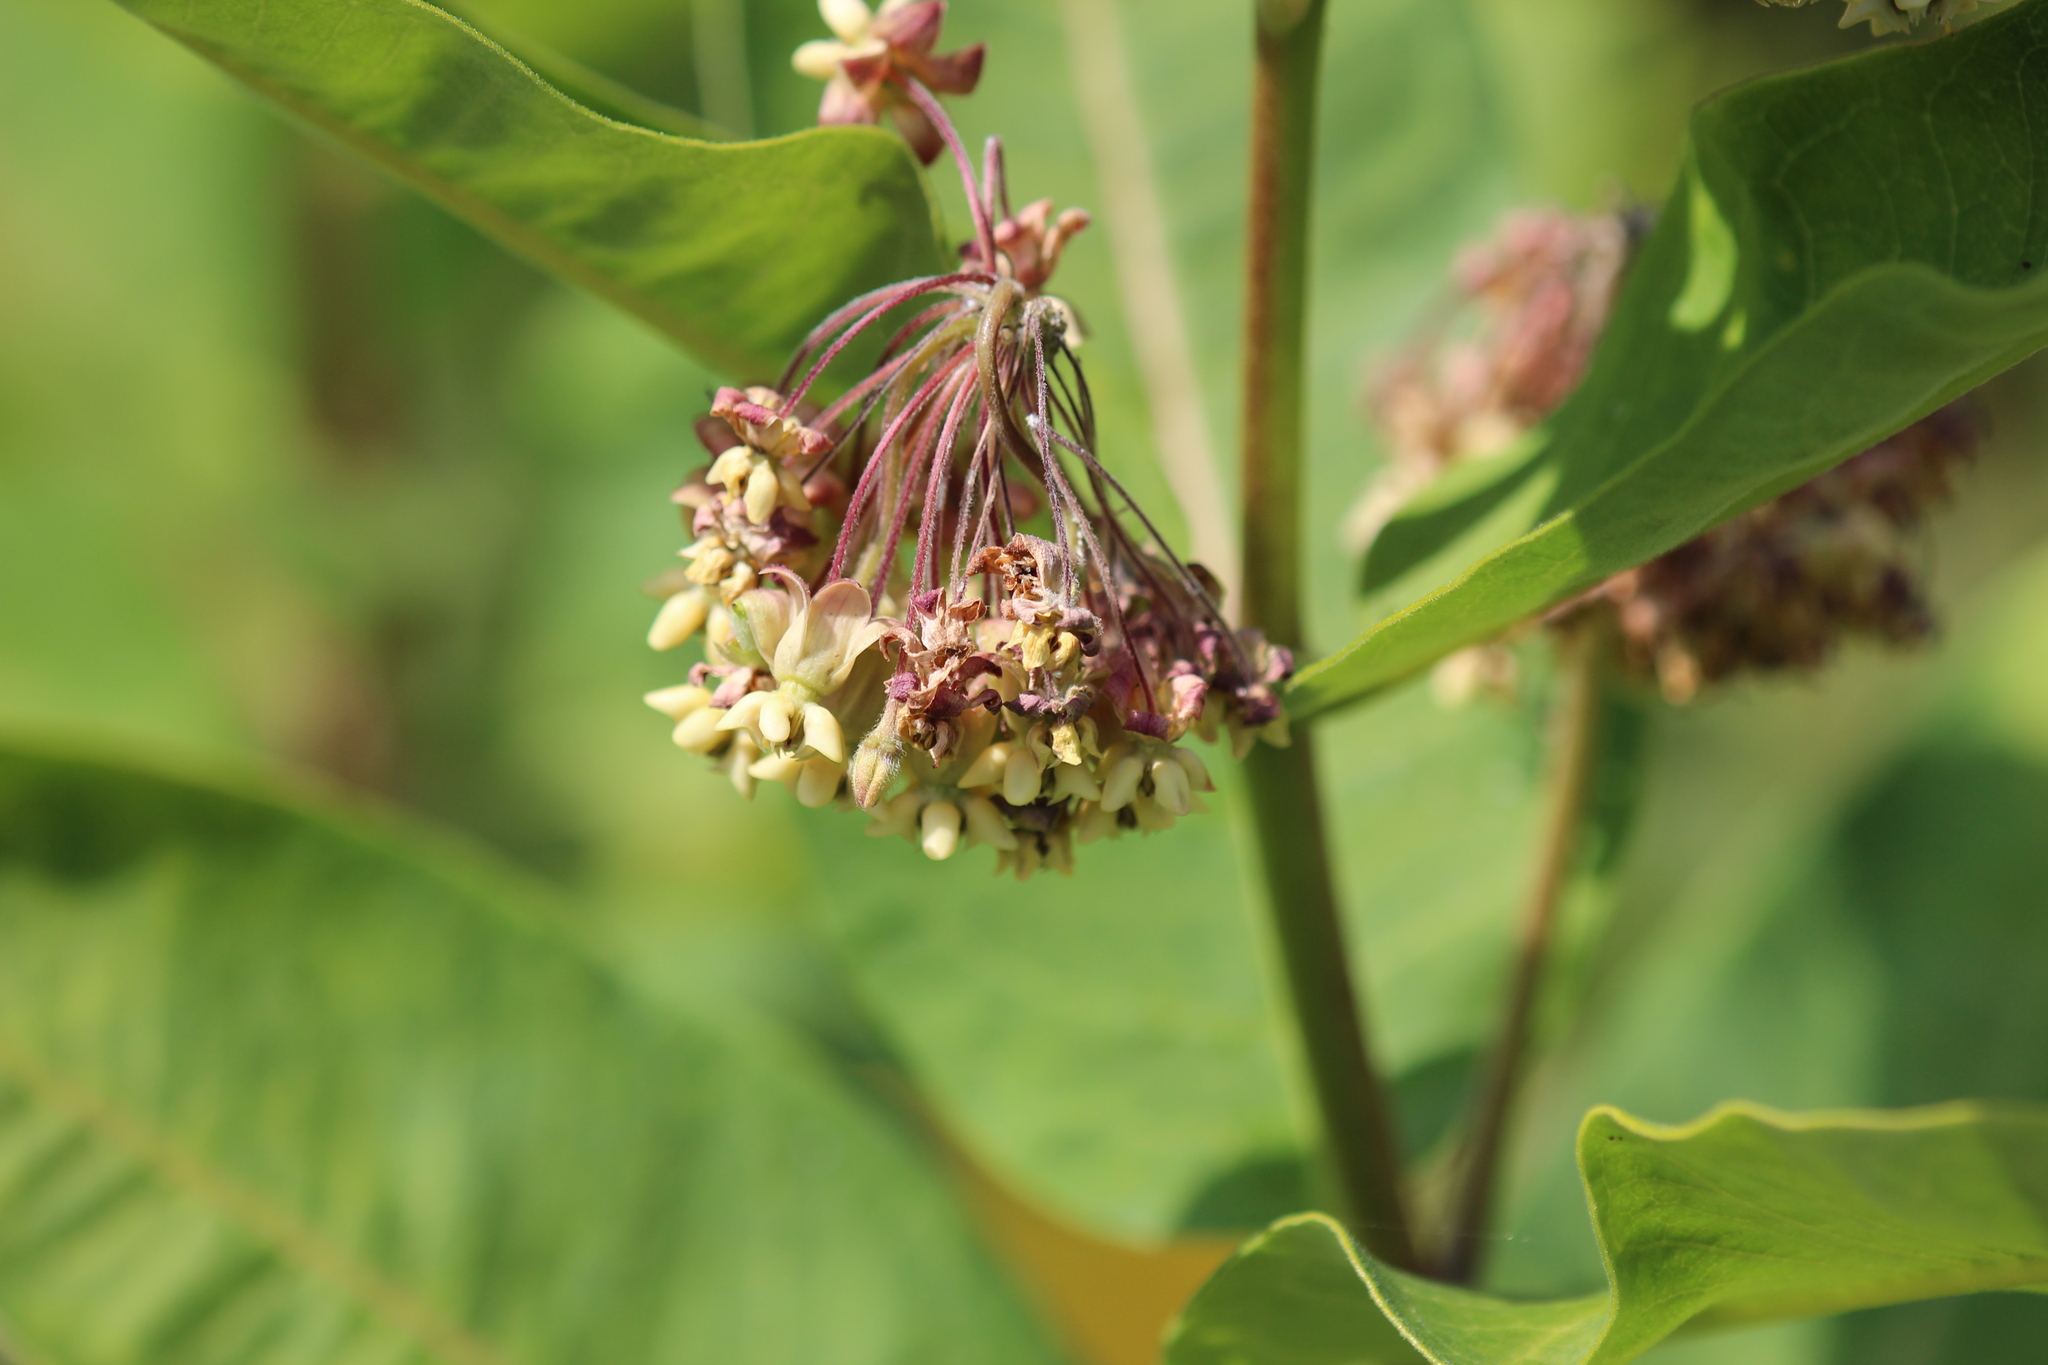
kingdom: Plantae
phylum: Tracheophyta
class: Magnoliopsida
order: Gentianales
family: Apocynaceae
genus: Asclepias
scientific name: Asclepias syriaca
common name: Common milkweed
